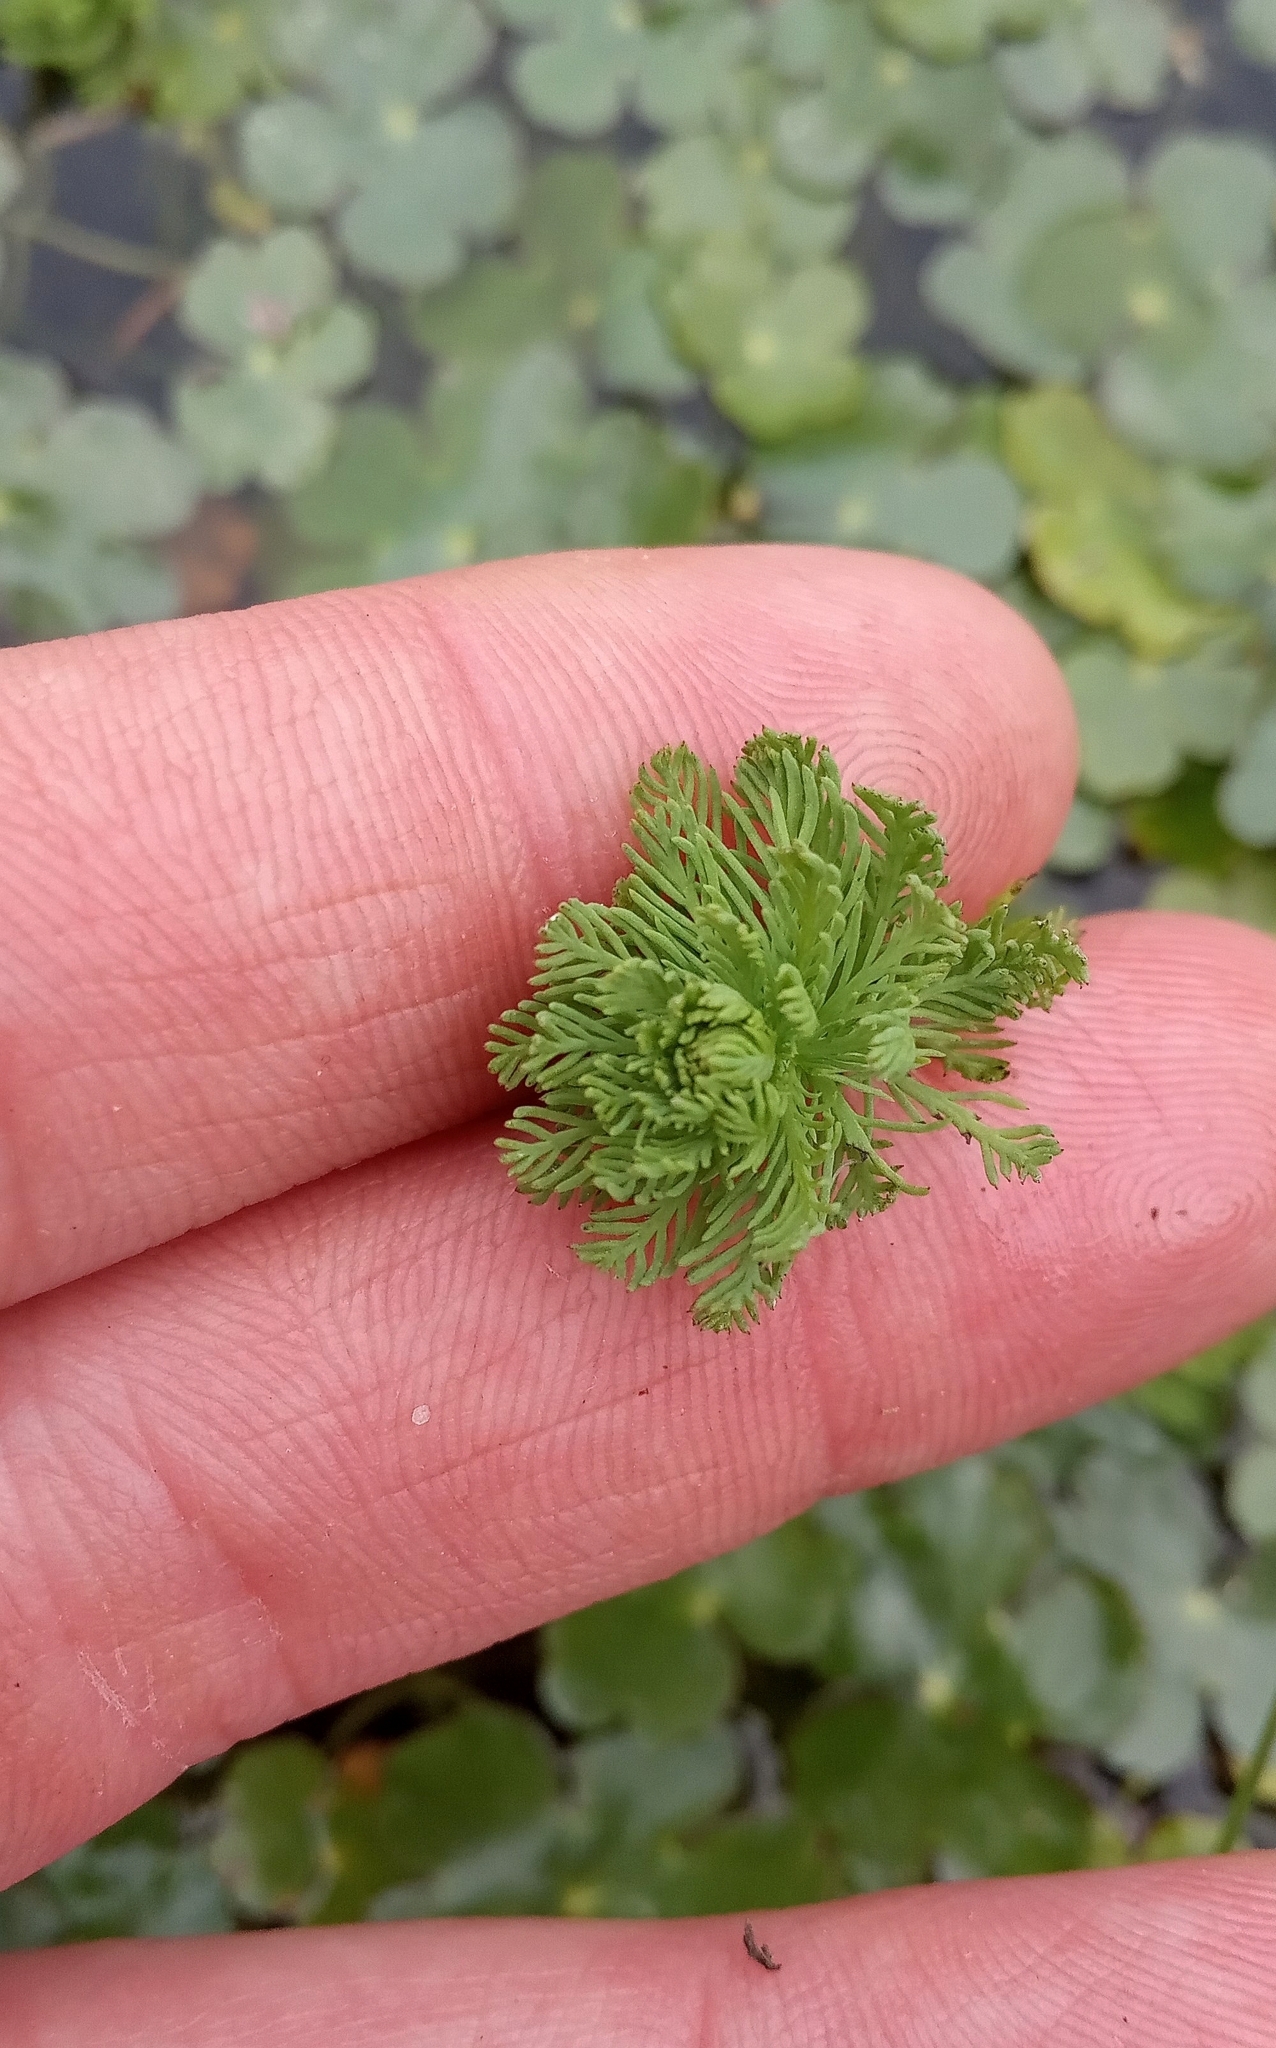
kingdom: Plantae
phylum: Tracheophyta
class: Magnoliopsida
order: Saxifragales
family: Haloragaceae
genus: Myriophyllum
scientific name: Myriophyllum aquaticum
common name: Parrot's feather
